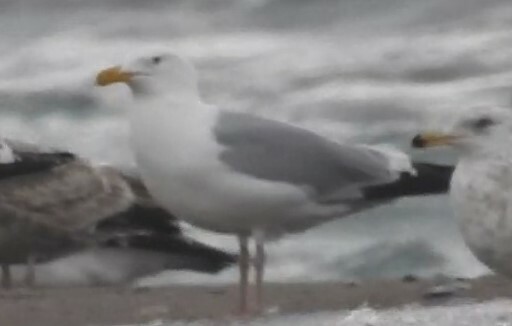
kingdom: Animalia
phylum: Chordata
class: Aves
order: Charadriiformes
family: Laridae
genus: Larus
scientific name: Larus argentatus
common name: Herring gull
